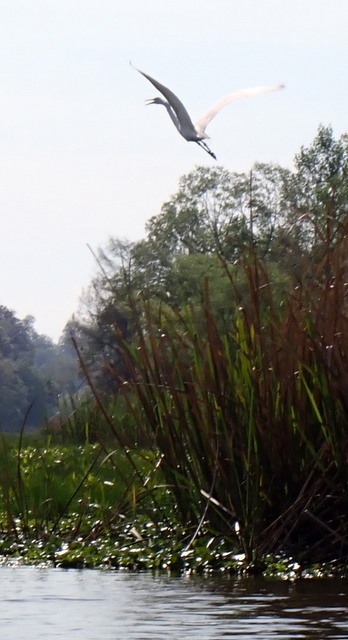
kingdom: Animalia
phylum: Chordata
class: Aves
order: Pelecaniformes
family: Ardeidae
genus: Ardea
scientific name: Ardea alba
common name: Great egret
